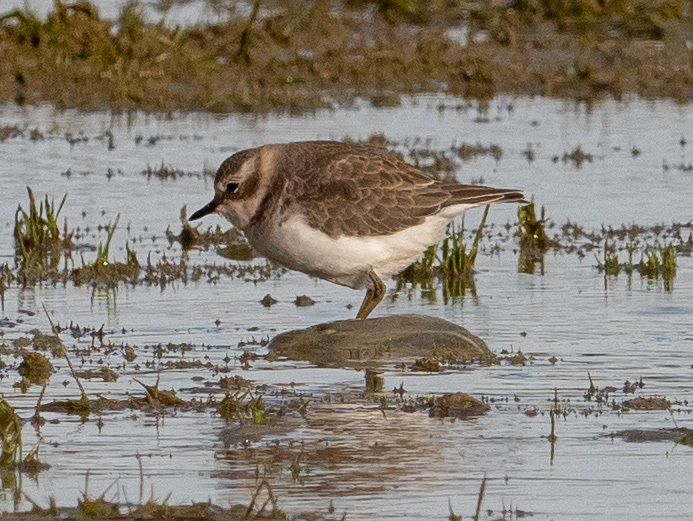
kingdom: Animalia
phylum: Chordata
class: Aves
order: Charadriiformes
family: Charadriidae
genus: Anarhynchus
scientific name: Anarhynchus
